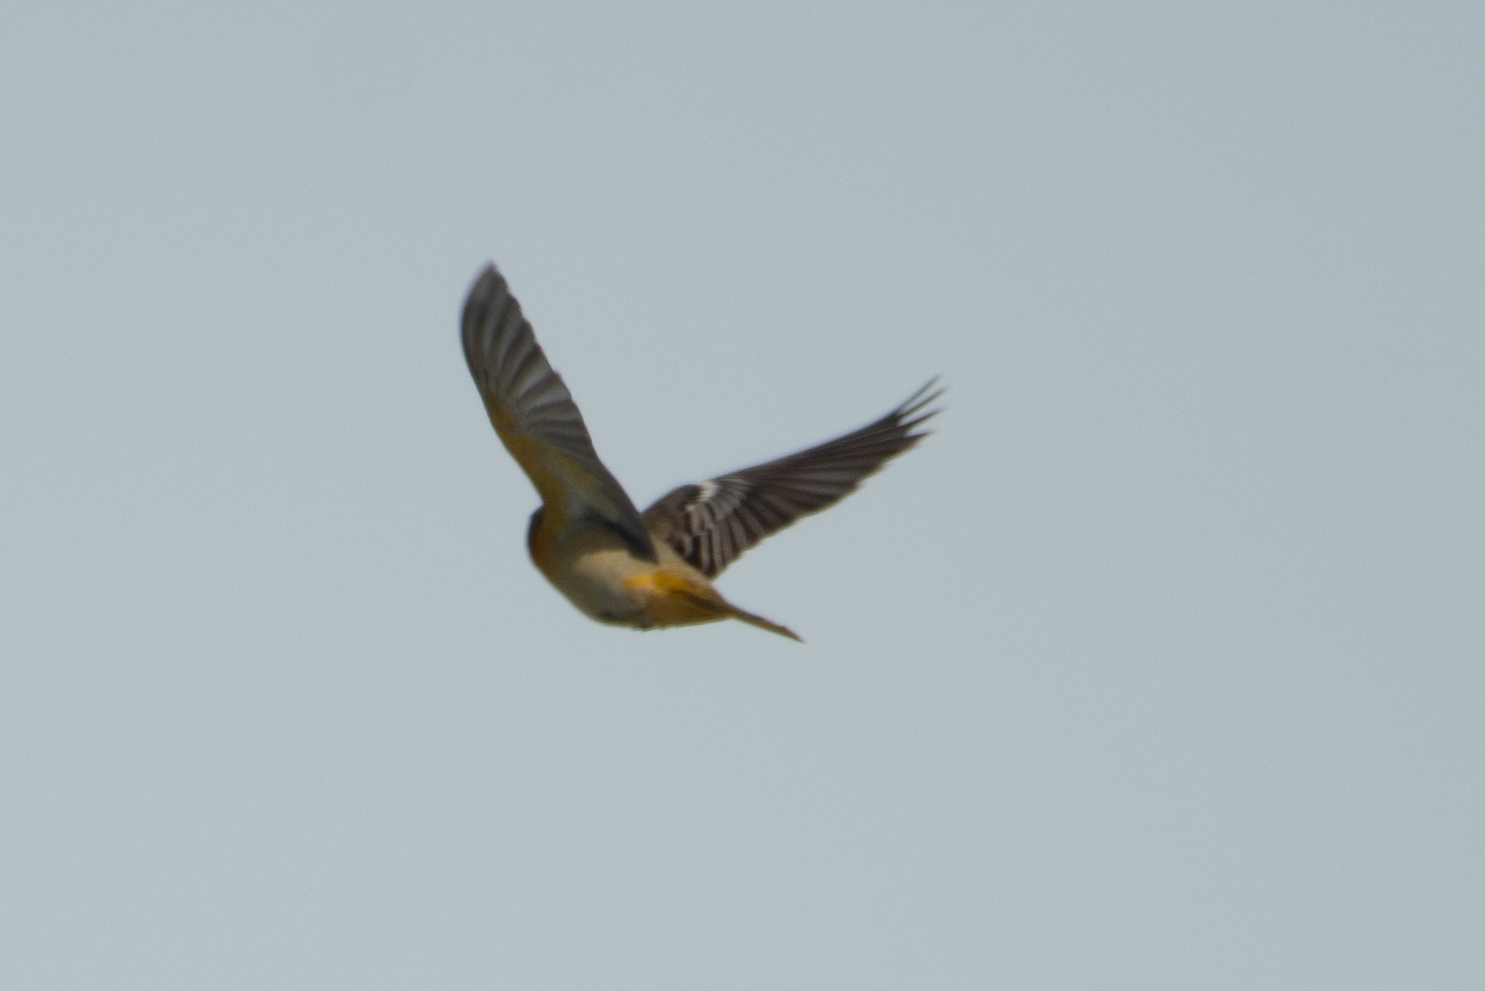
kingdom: Animalia
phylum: Chordata
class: Aves
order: Passeriformes
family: Icteridae
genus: Icterus
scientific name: Icterus bullockii
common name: Bullock's oriole
